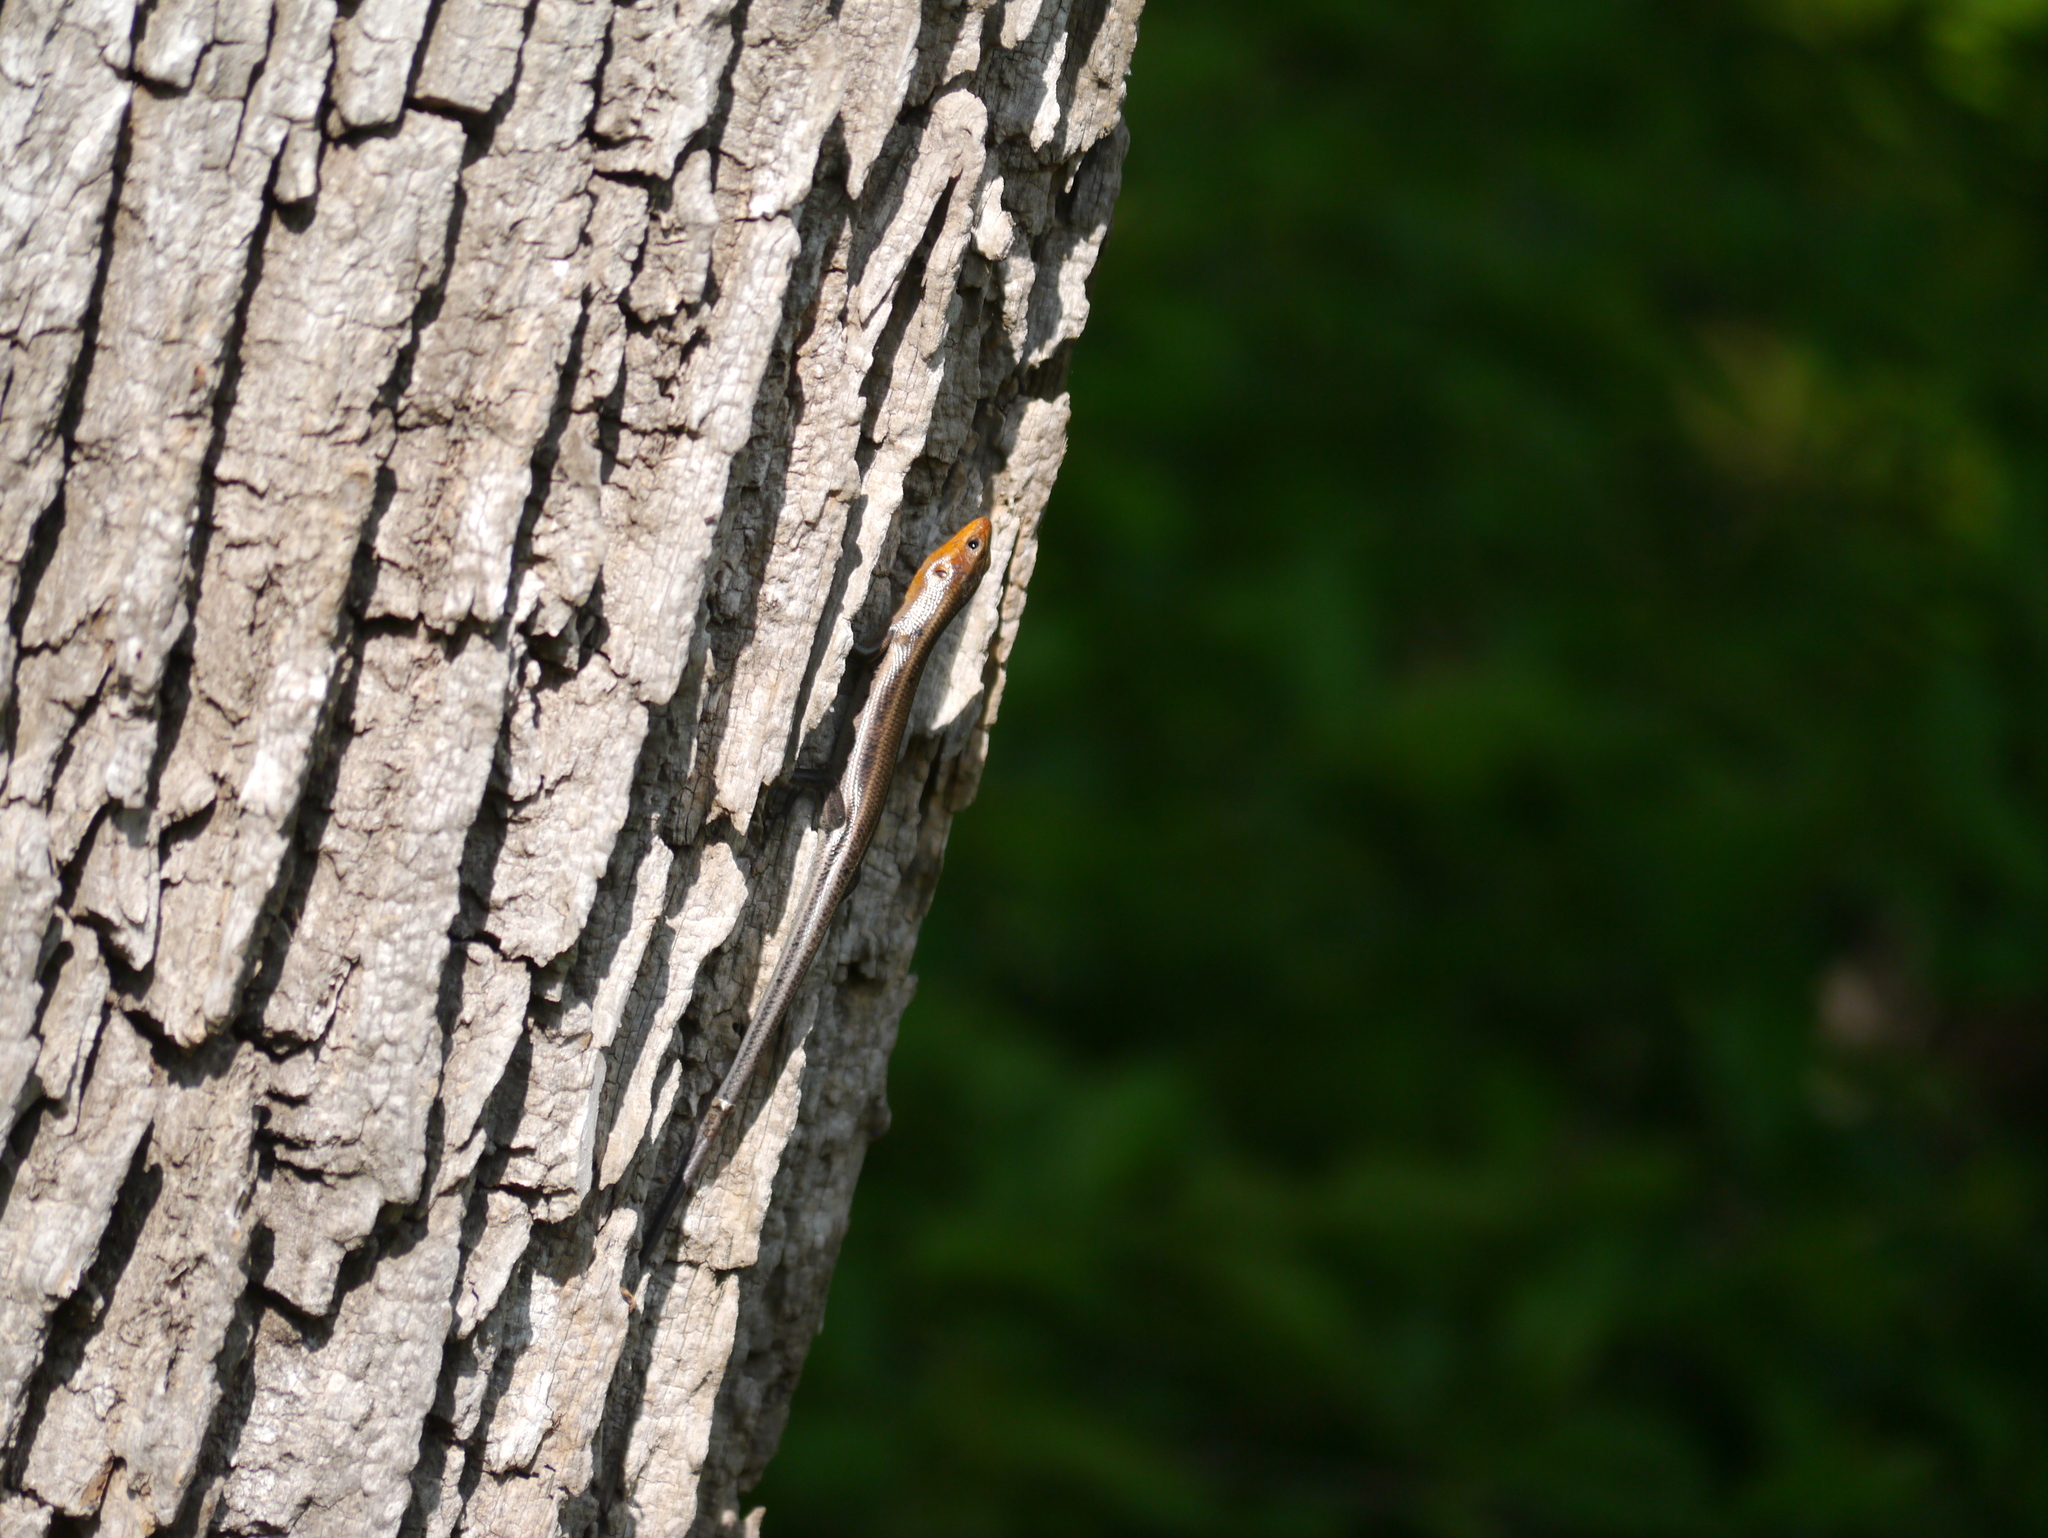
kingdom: Animalia
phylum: Chordata
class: Squamata
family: Scincidae
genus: Plestiodon
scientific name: Plestiodon fasciatus
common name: Five-lined skink
